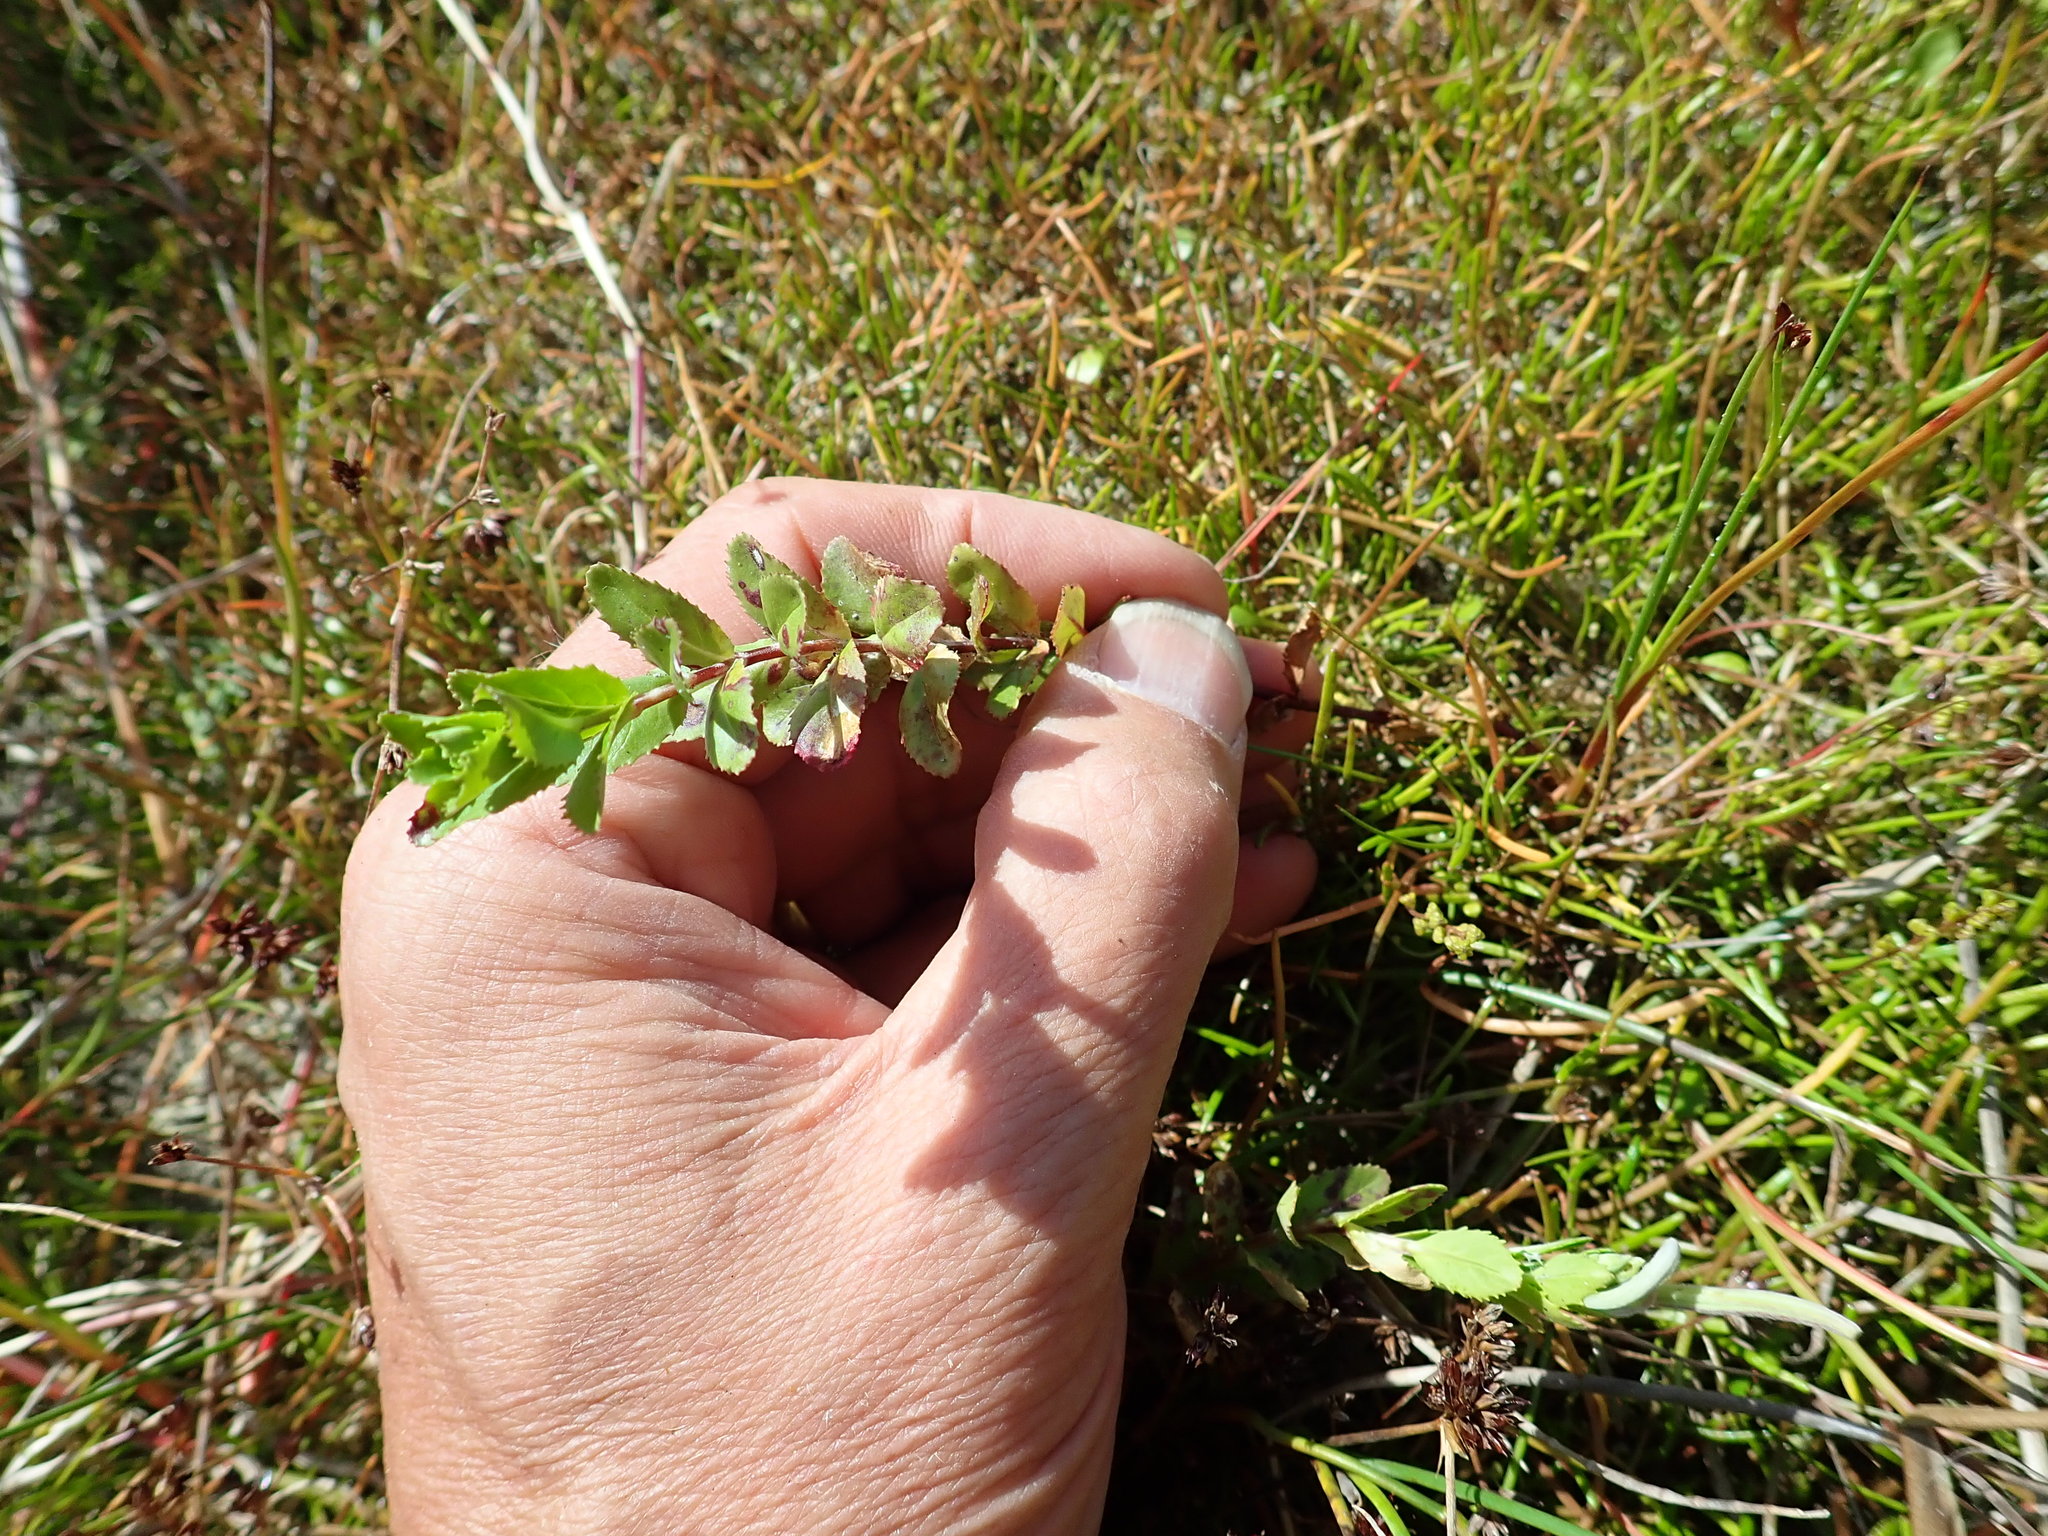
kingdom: Plantae
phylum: Tracheophyta
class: Magnoliopsida
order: Myrtales
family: Onagraceae
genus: Epilobium
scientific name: Epilobium billardiereanum
